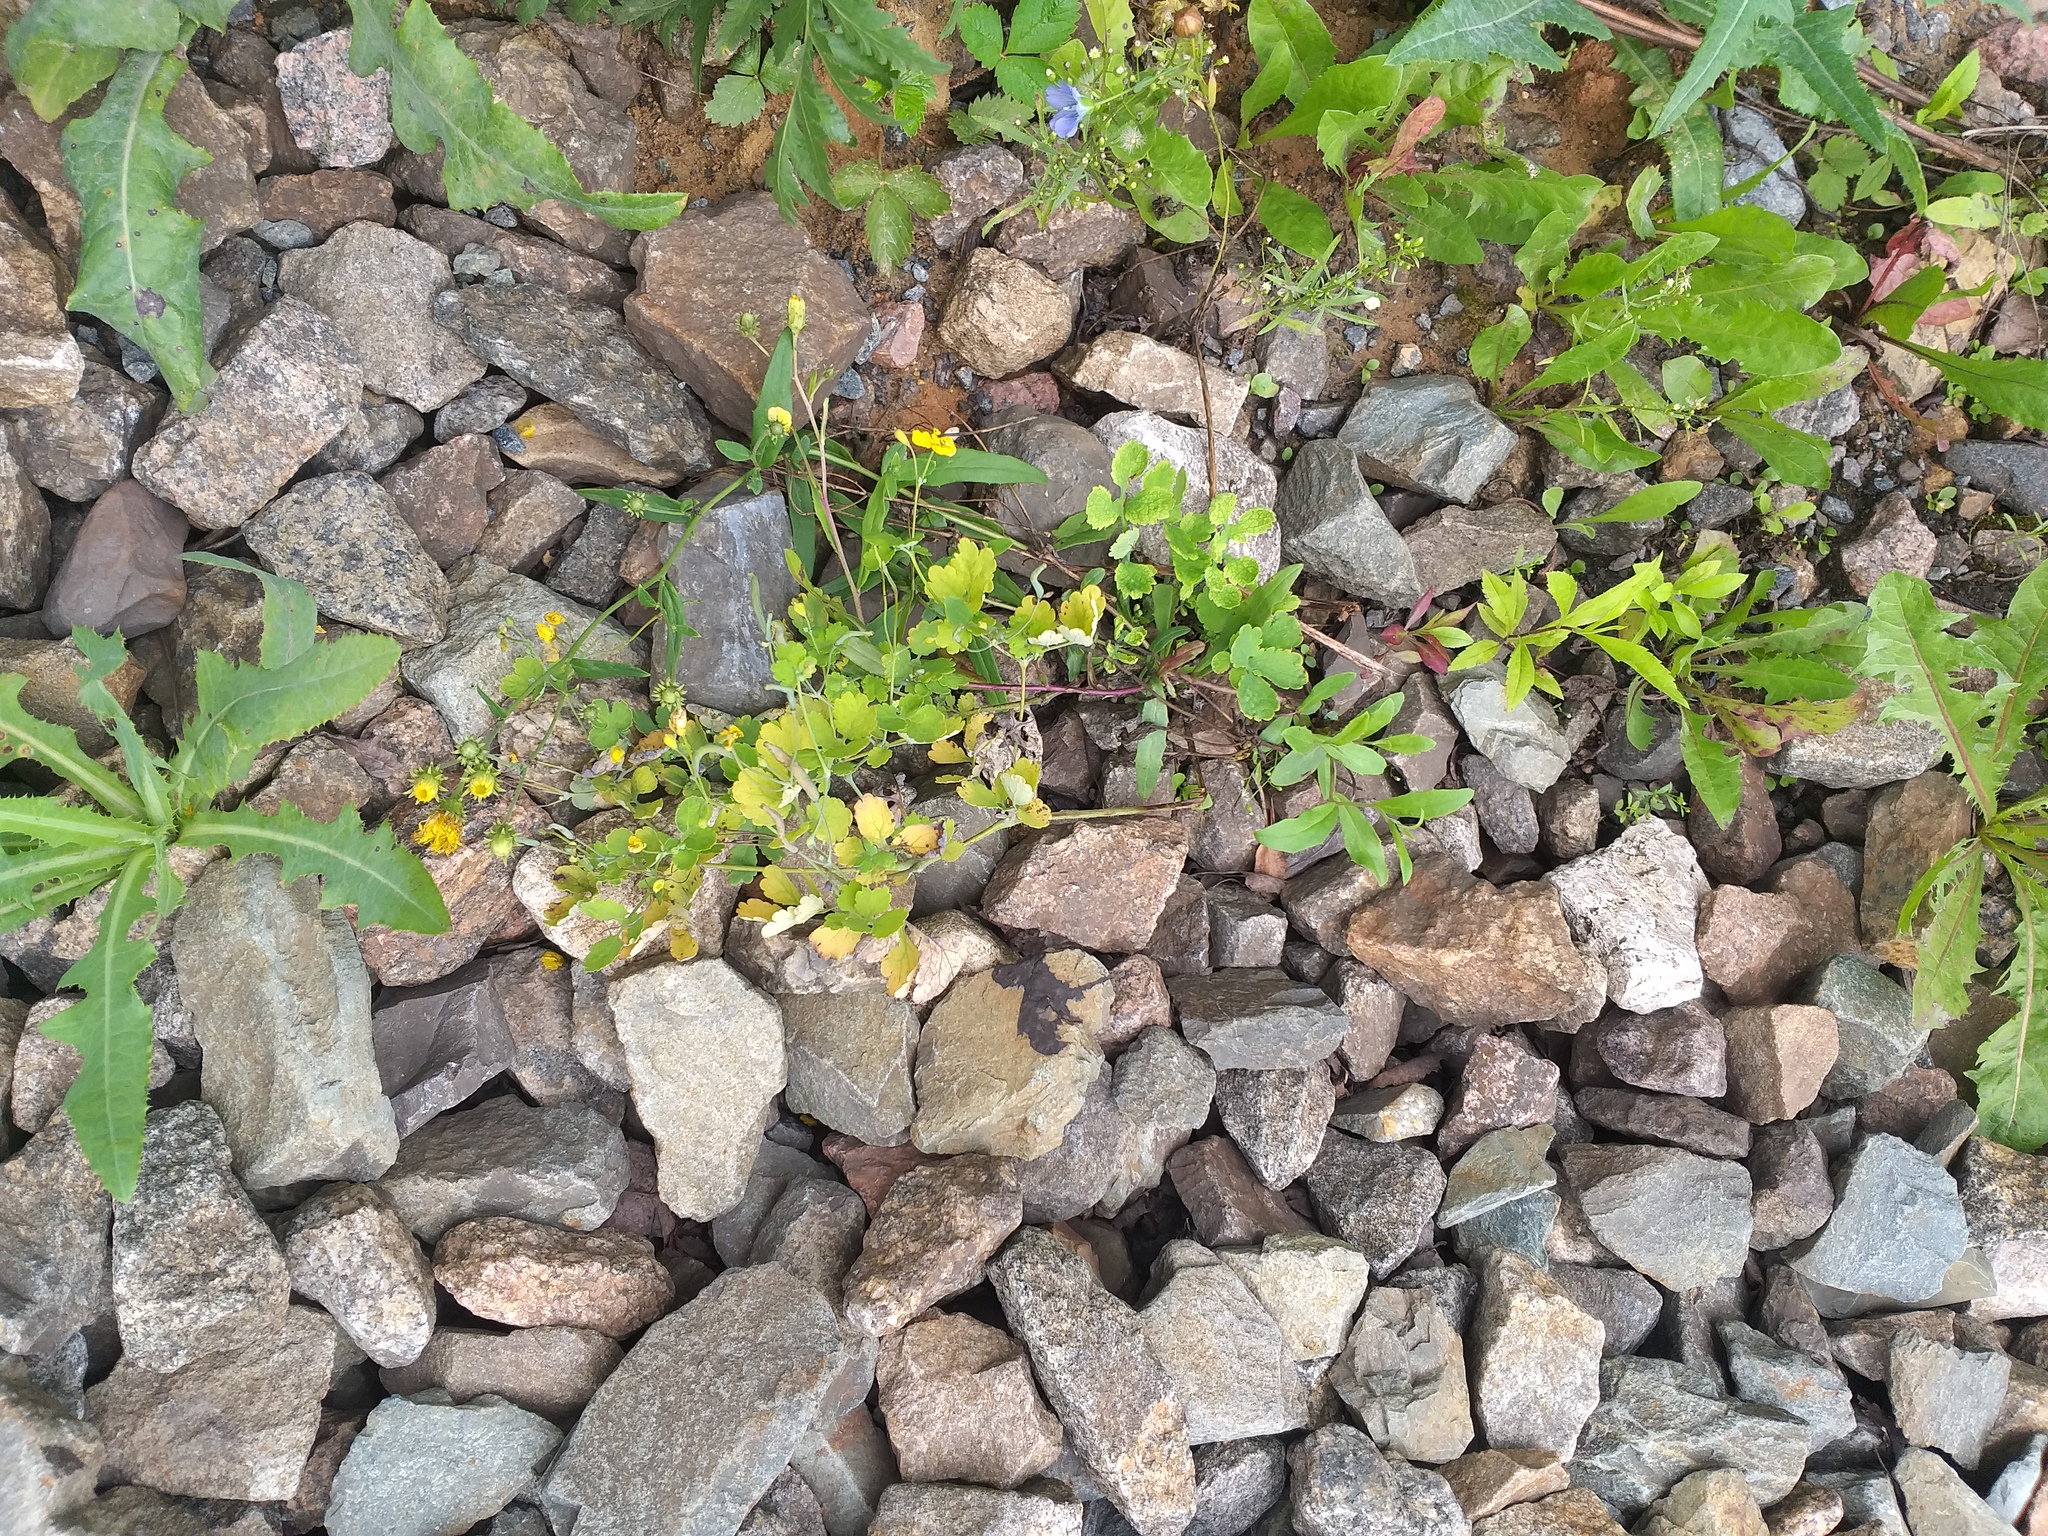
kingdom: Plantae
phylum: Tracheophyta
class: Magnoliopsida
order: Ranunculales
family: Papaveraceae
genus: Chelidonium
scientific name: Chelidonium majus
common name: Greater celandine
